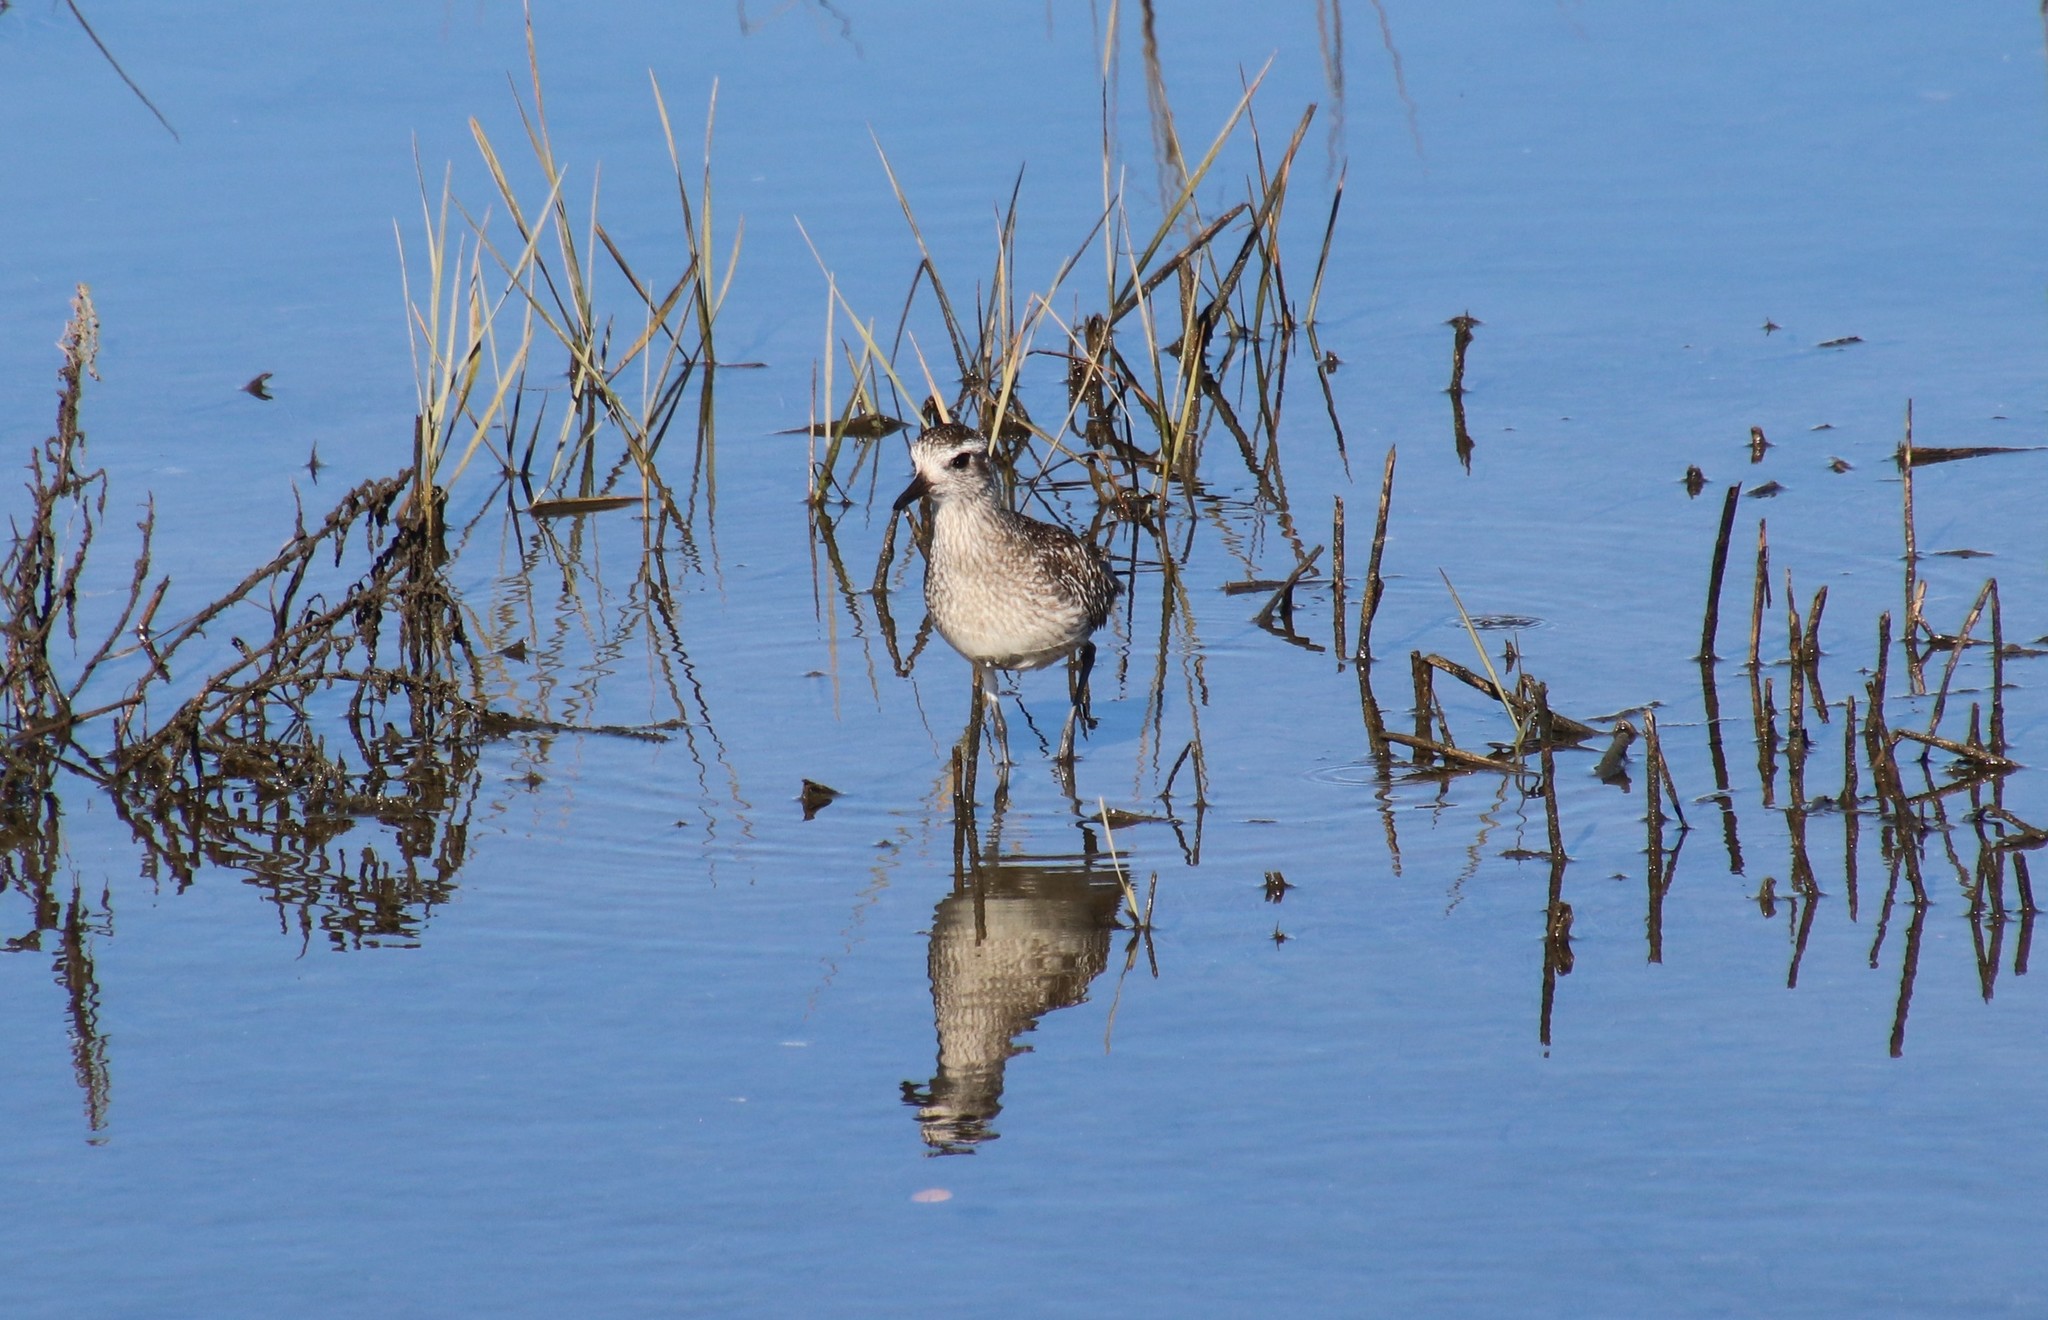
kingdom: Animalia
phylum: Chordata
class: Aves
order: Charadriiformes
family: Charadriidae
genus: Pluvialis
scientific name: Pluvialis squatarola
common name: Grey plover
